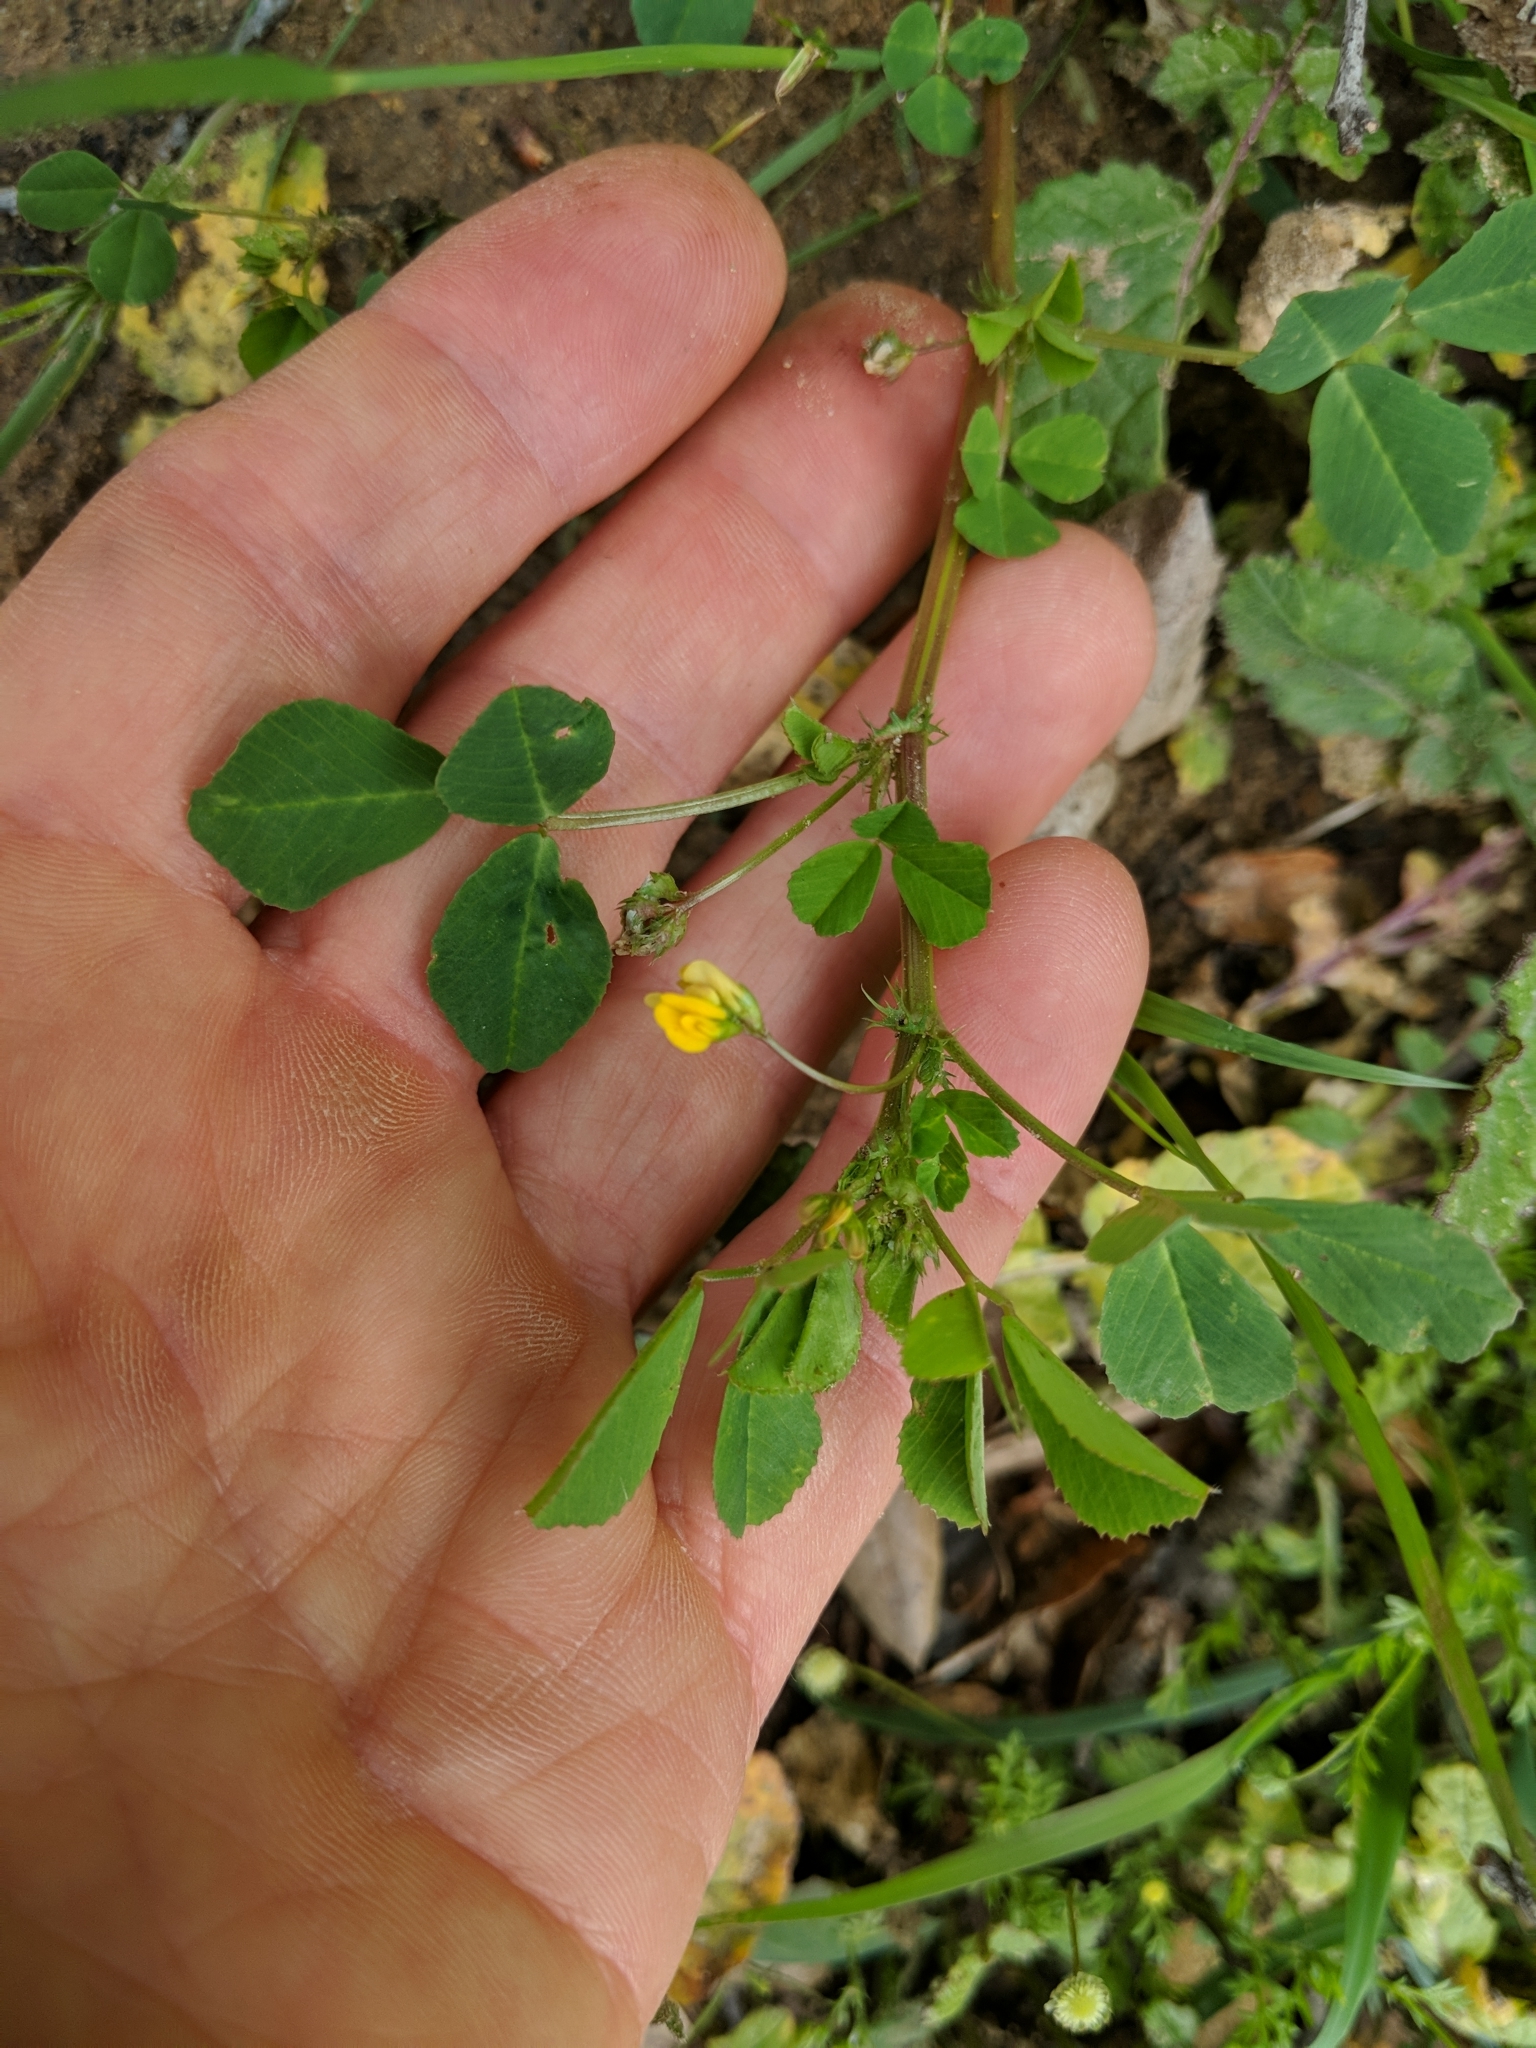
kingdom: Plantae
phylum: Tracheophyta
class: Magnoliopsida
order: Fabales
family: Fabaceae
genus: Medicago
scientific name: Medicago polymorpha
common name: Burclover
